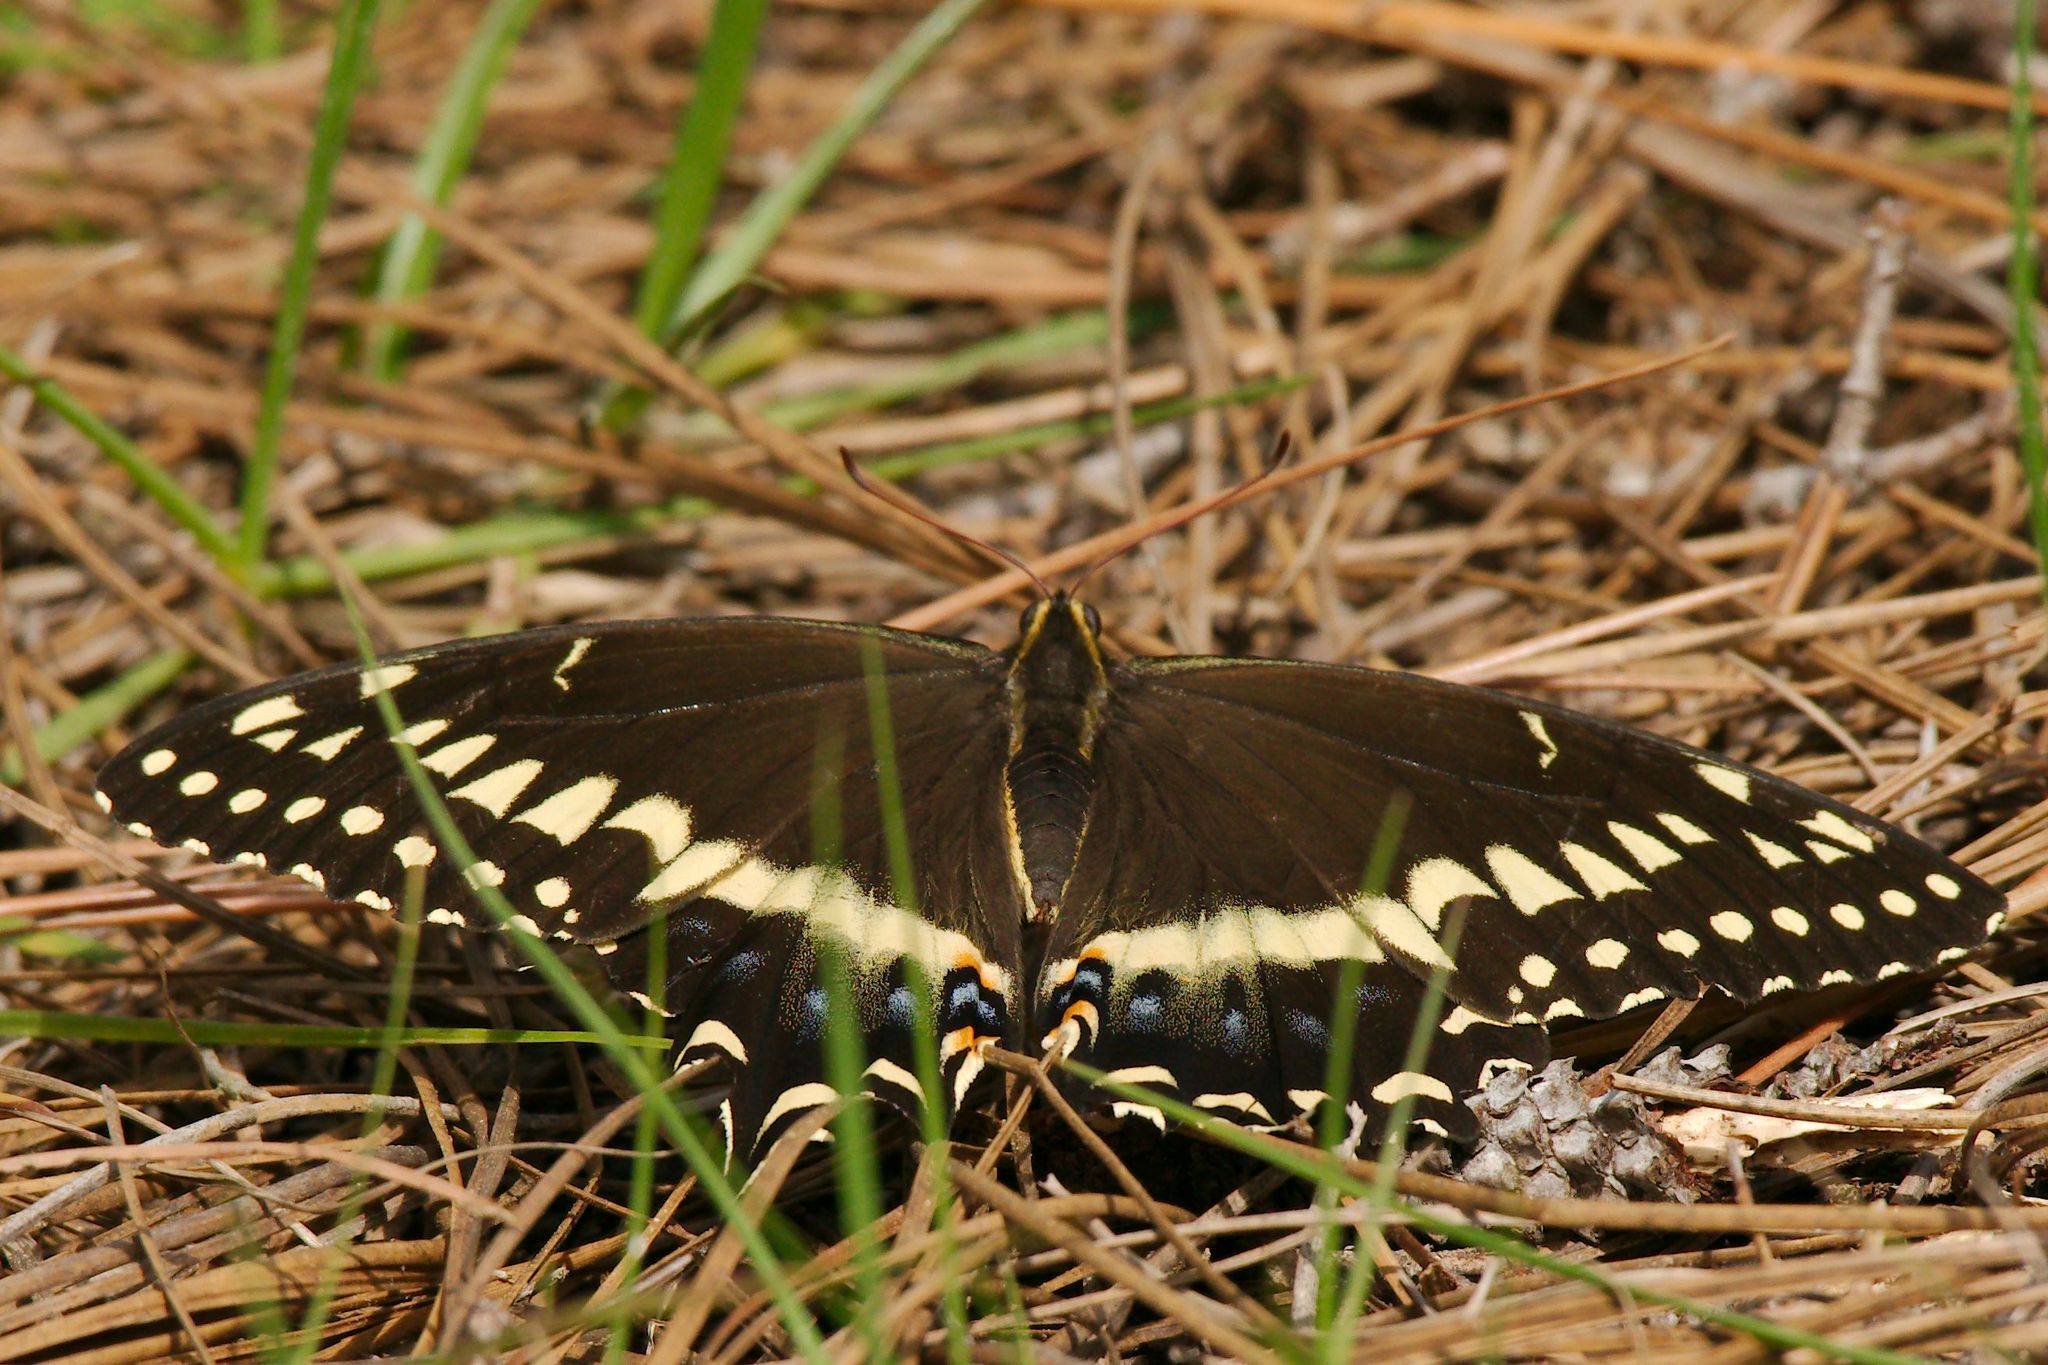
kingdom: Animalia
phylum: Arthropoda
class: Insecta
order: Lepidoptera
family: Papilionidae
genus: Papilio
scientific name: Papilio palamedes
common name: Palamedes swallowtail
